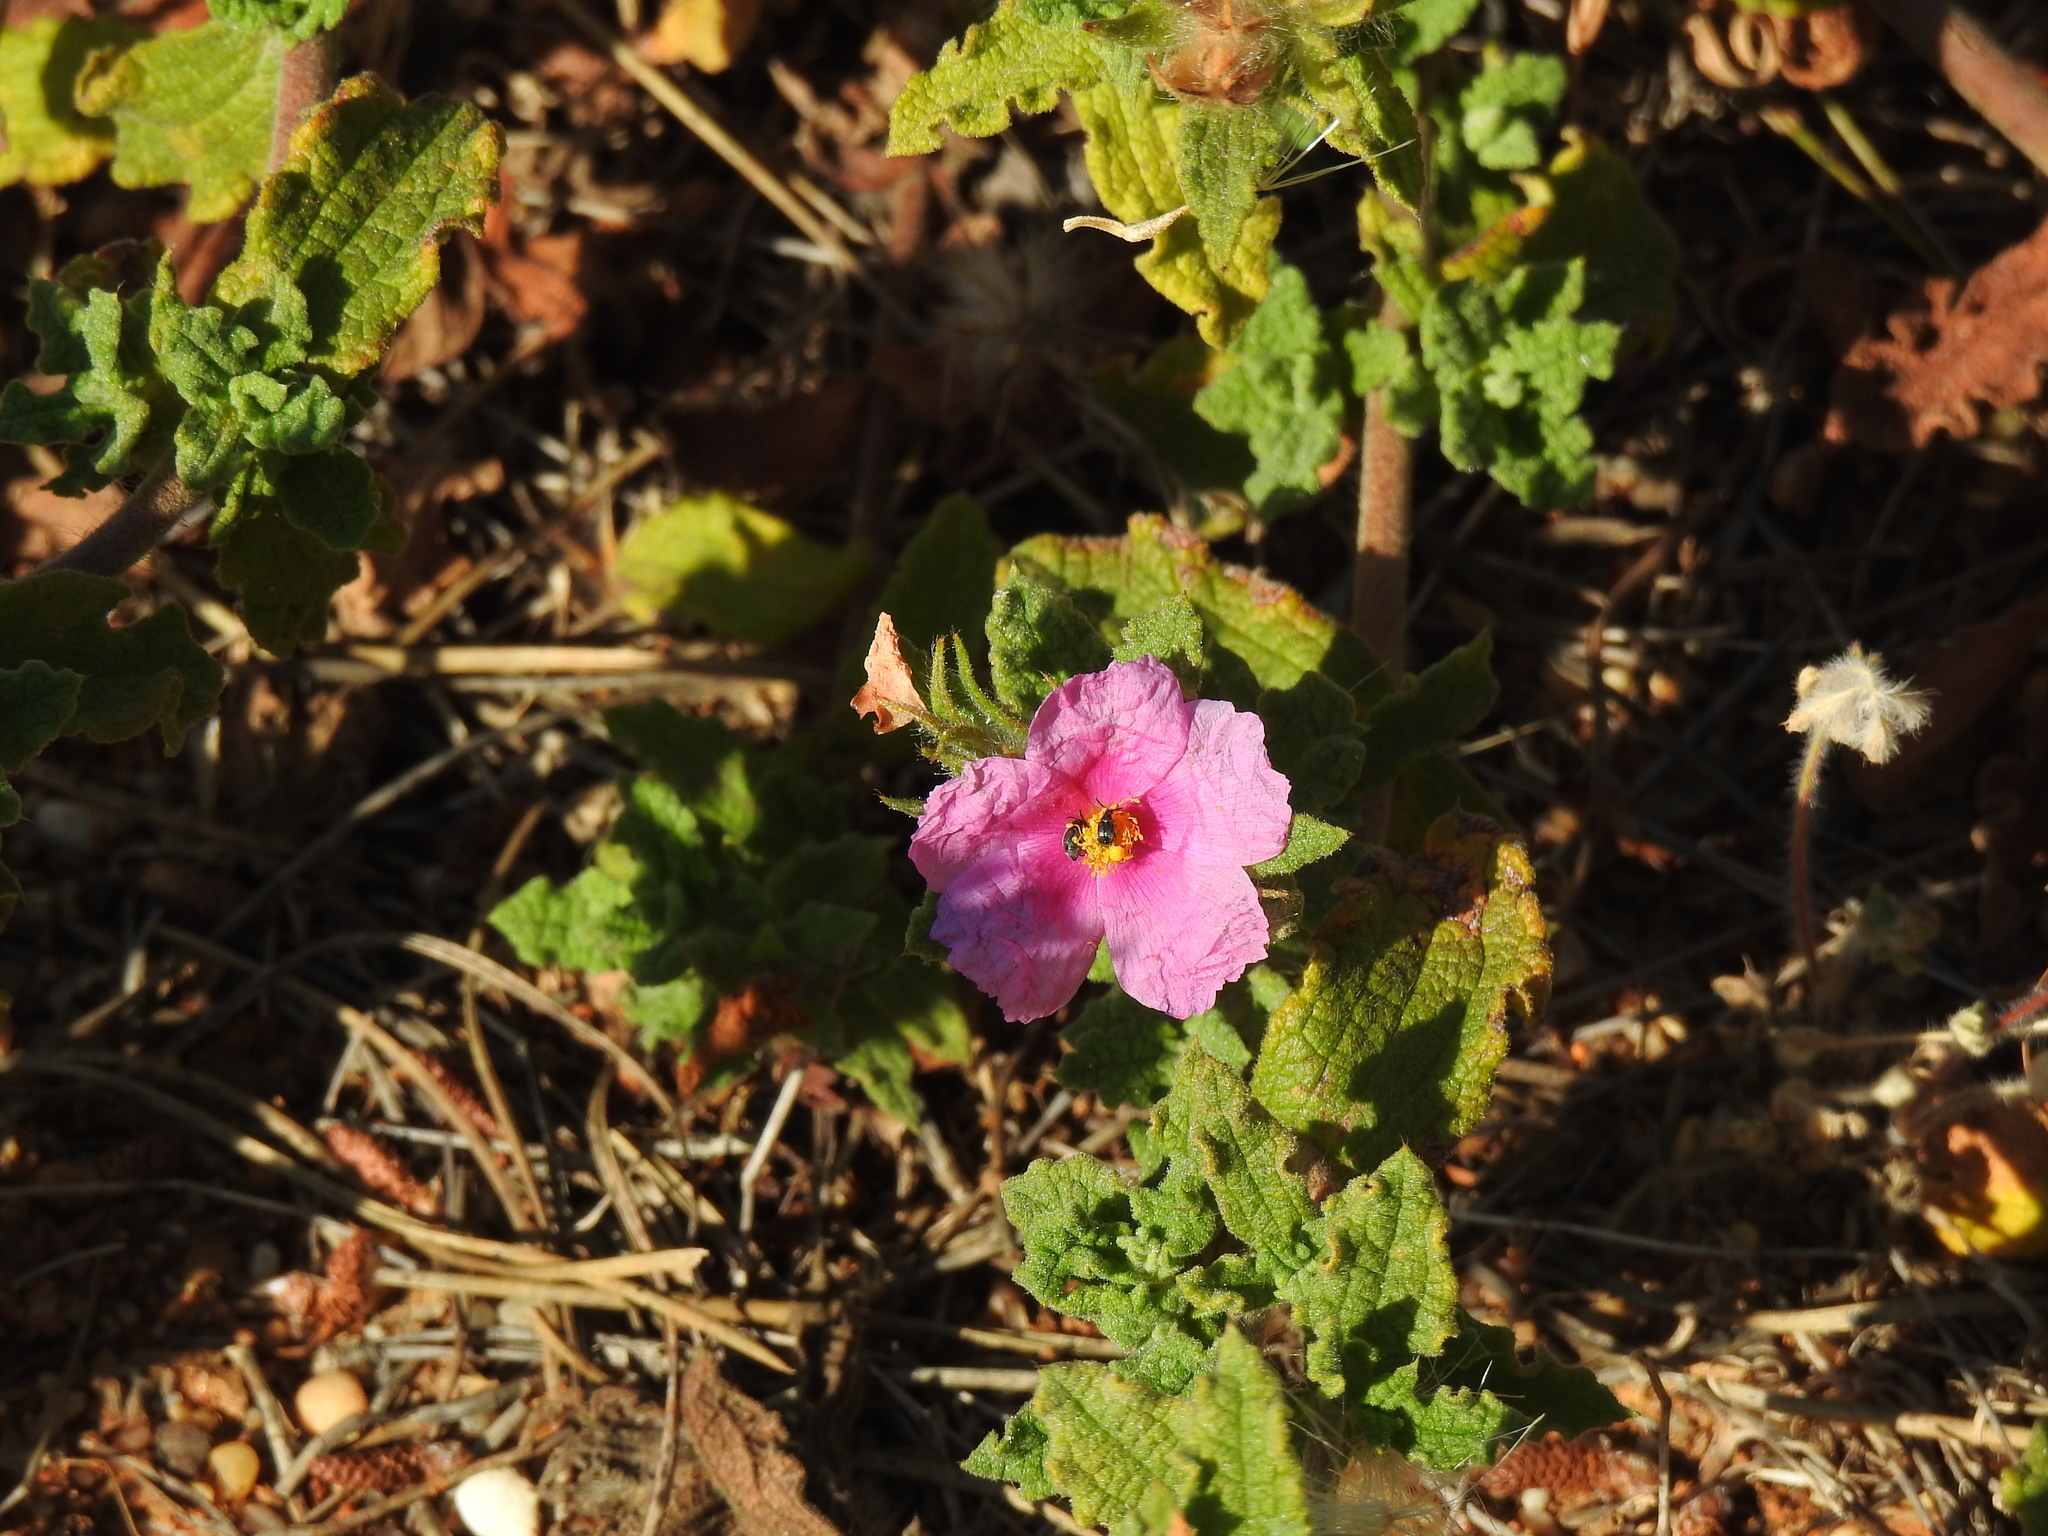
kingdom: Plantae
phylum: Tracheophyta
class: Magnoliopsida
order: Malvales
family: Cistaceae
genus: Cistus
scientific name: Cistus crispus
